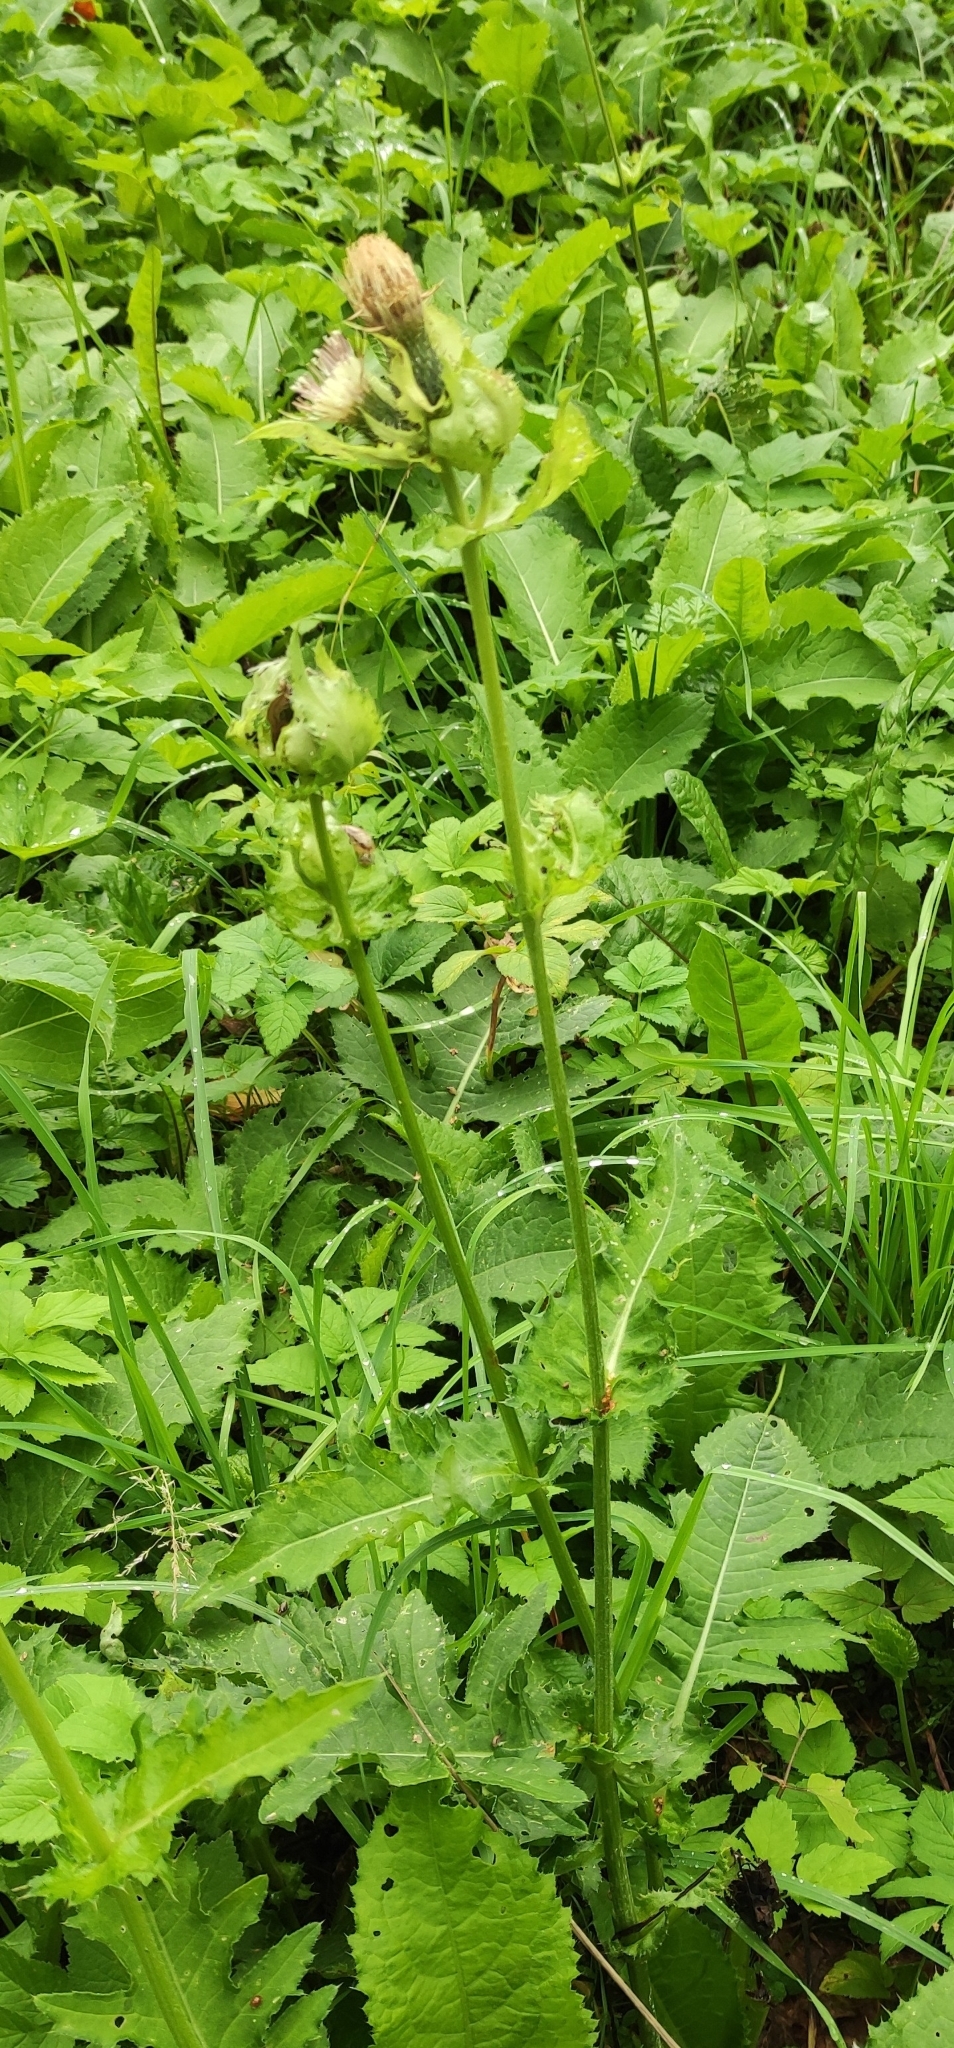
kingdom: Plantae
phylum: Tracheophyta
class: Magnoliopsida
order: Asterales
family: Asteraceae
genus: Cirsium
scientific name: Cirsium oleraceum
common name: Cabbage thistle
